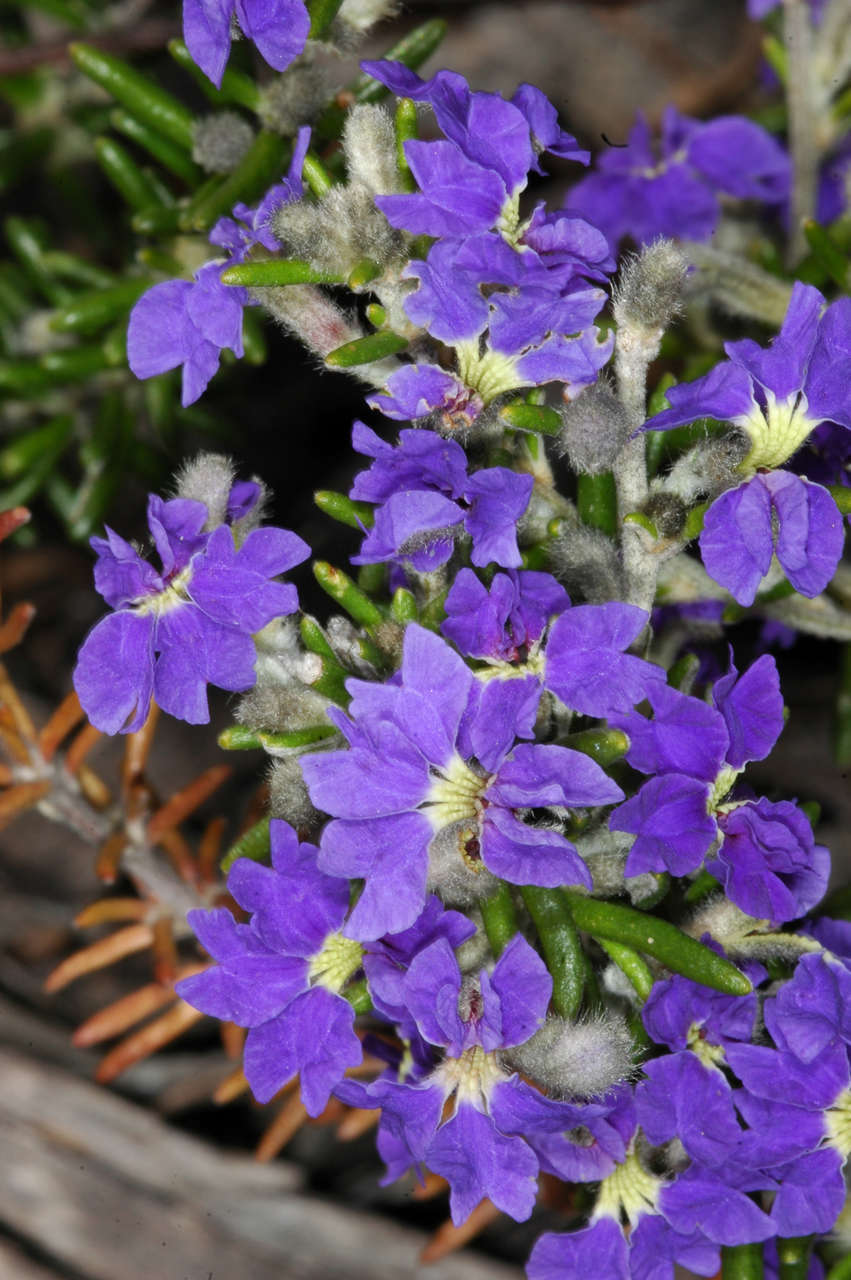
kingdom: Plantae
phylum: Tracheophyta
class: Magnoliopsida
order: Asterales
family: Goodeniaceae
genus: Dampiera
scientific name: Dampiera rosmarinifolia
